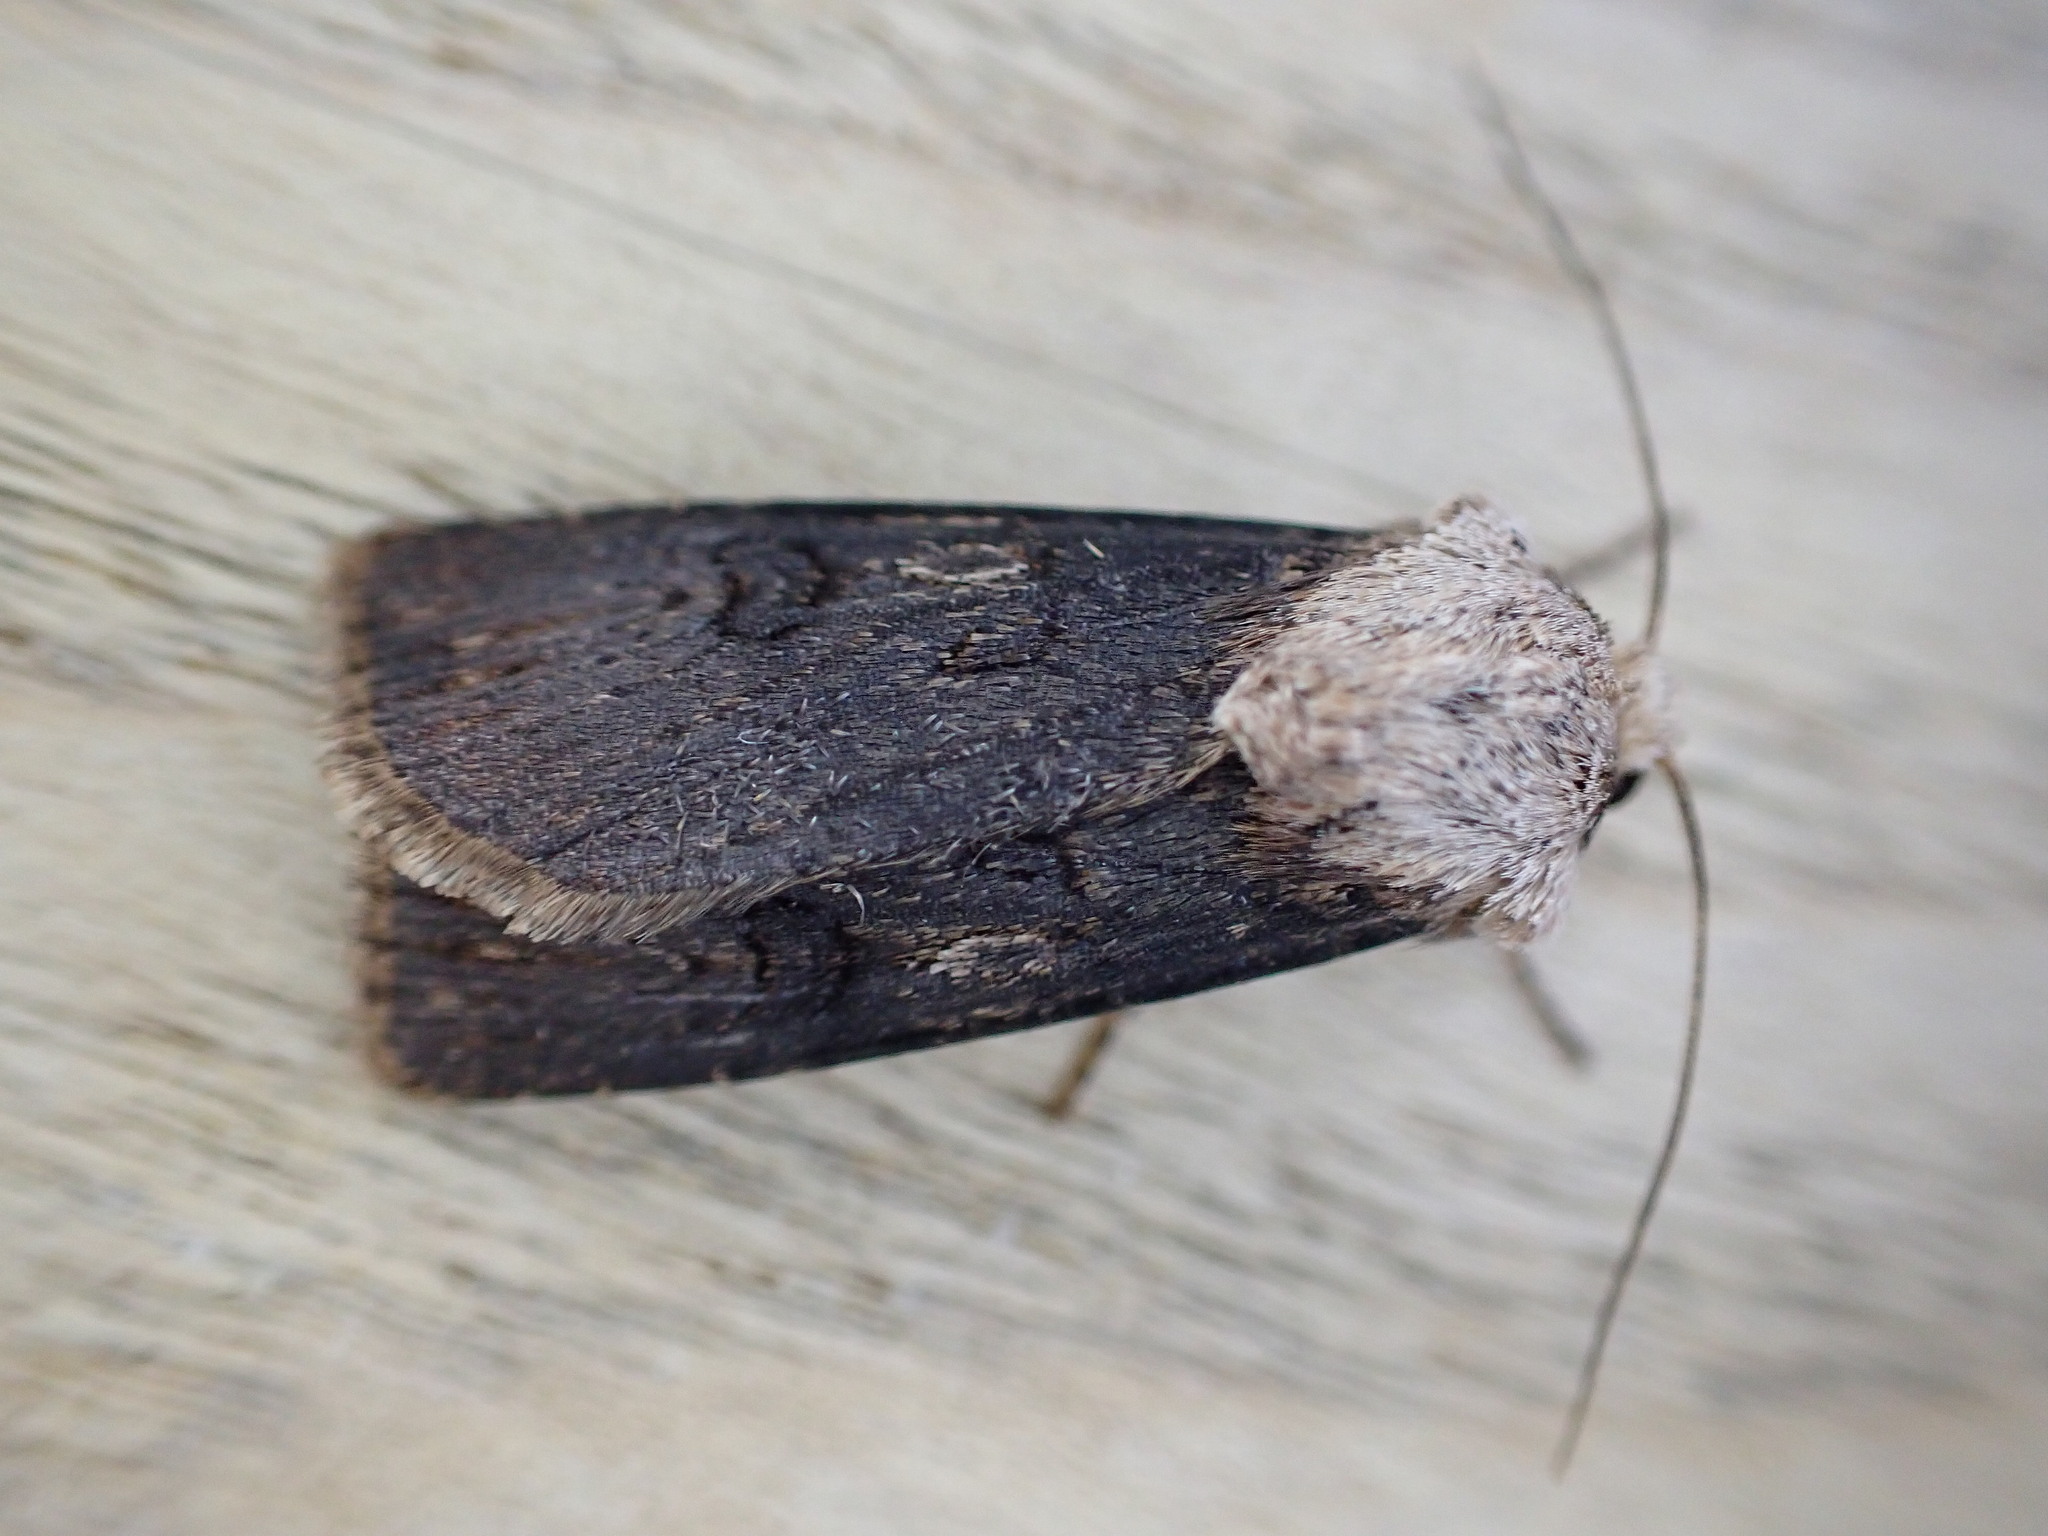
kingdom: Animalia
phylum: Arthropoda
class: Insecta
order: Lepidoptera
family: Noctuidae
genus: Agrotis
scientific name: Agrotis puta
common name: Shuttle-shaped dart
